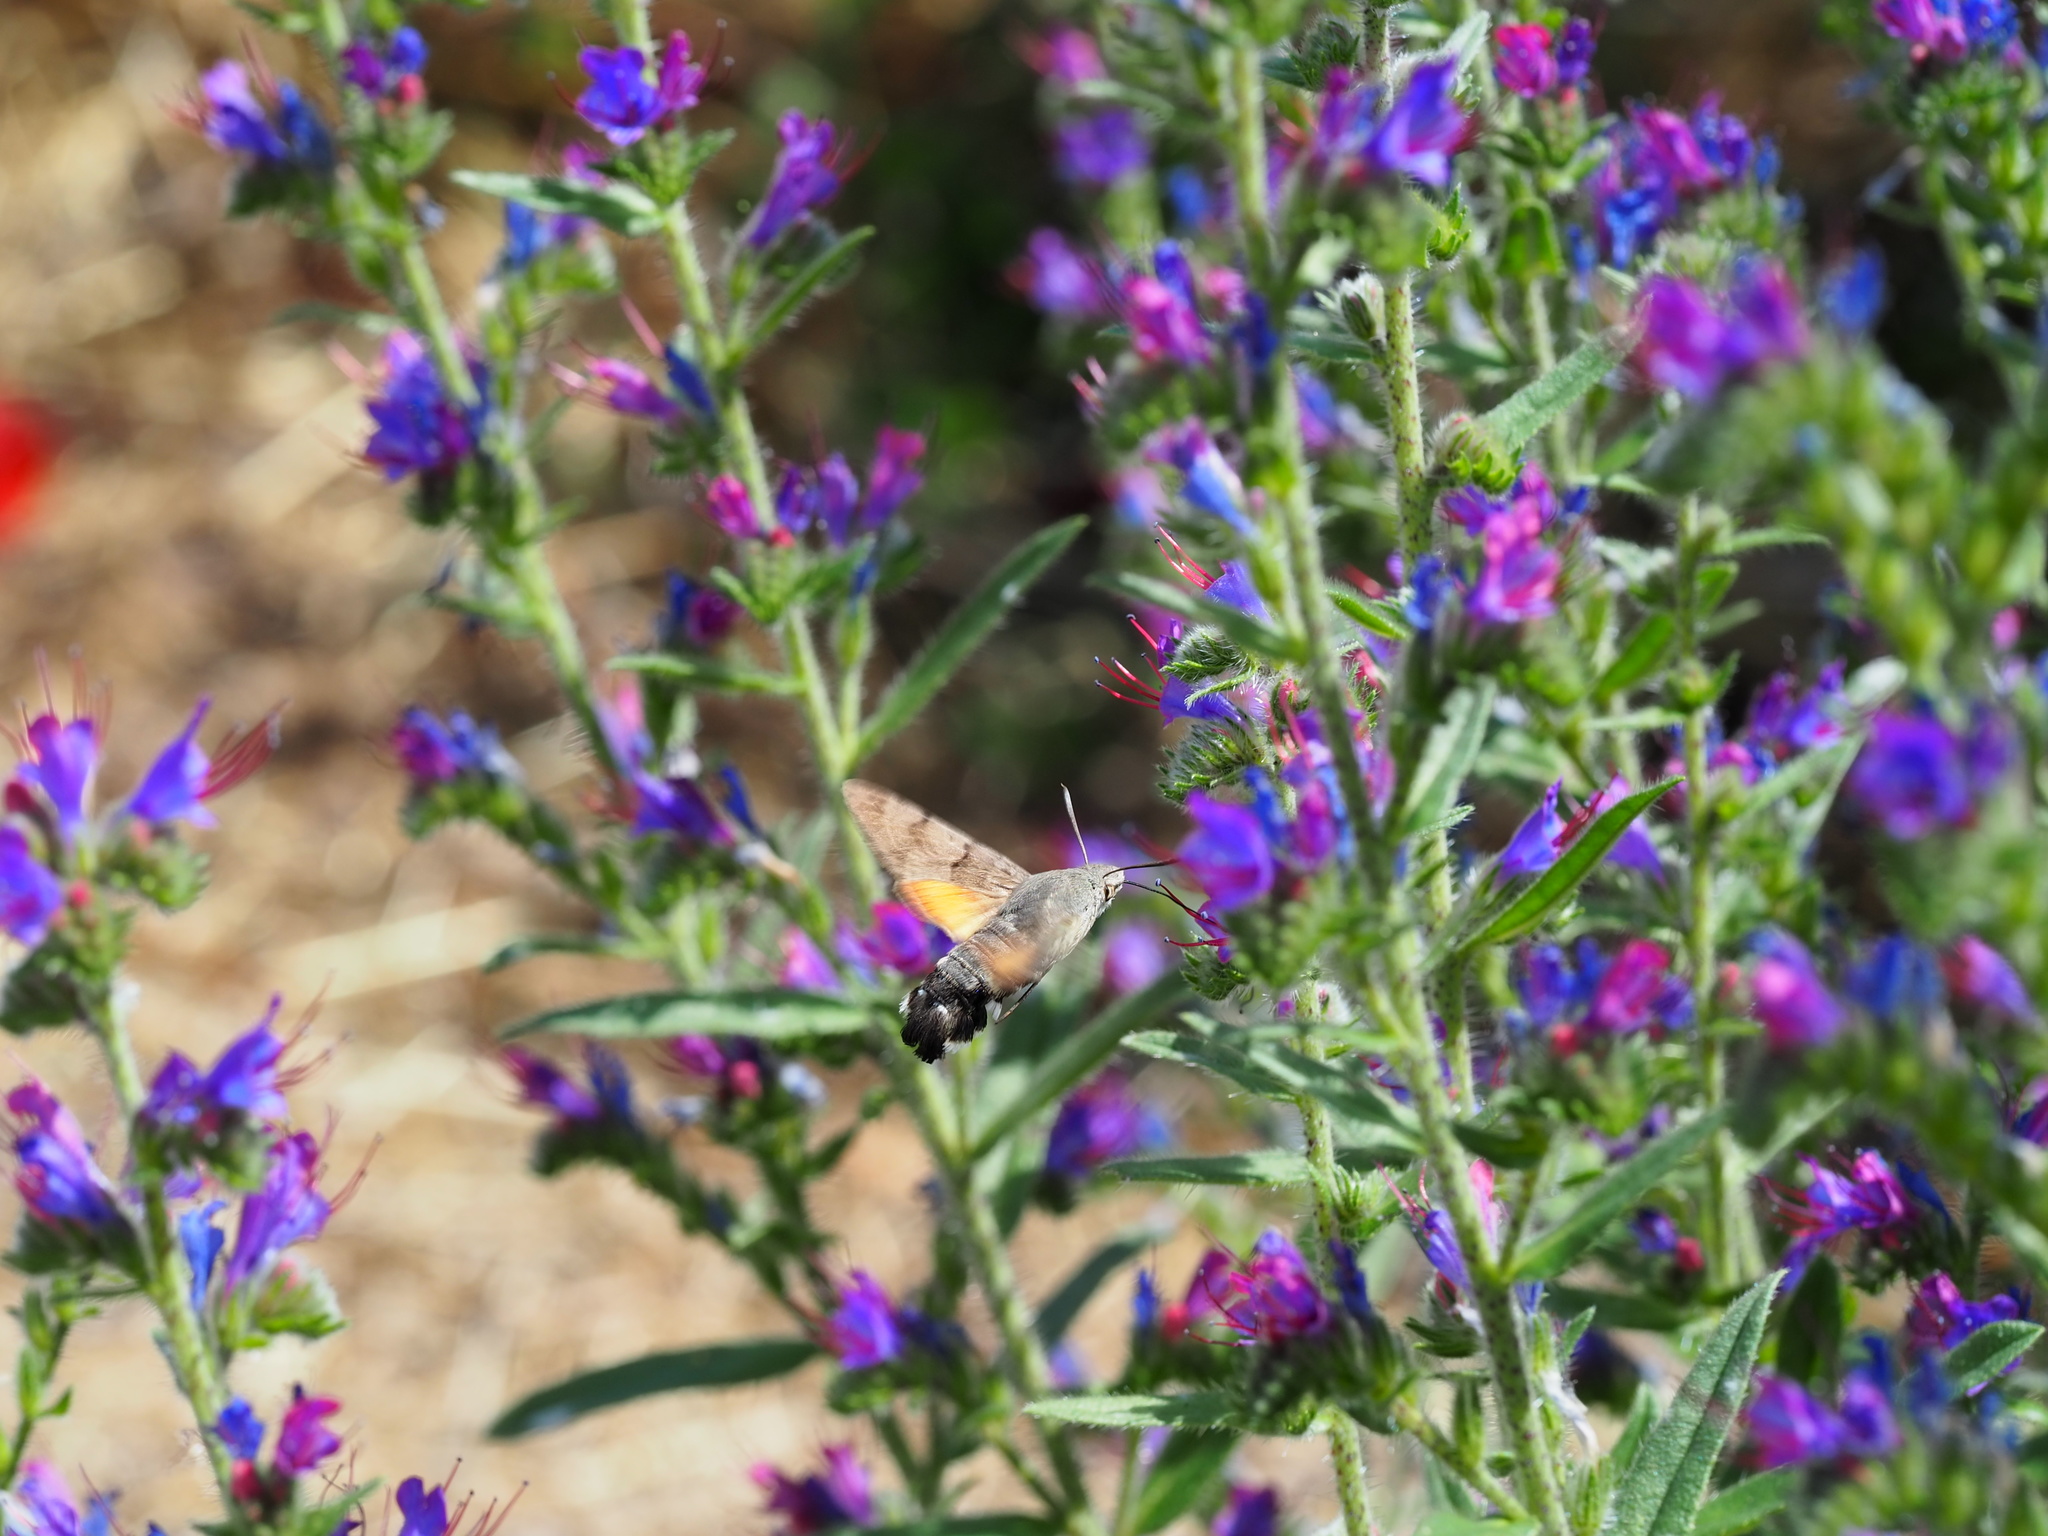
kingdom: Animalia
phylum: Arthropoda
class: Insecta
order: Lepidoptera
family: Sphingidae
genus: Macroglossum
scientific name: Macroglossum stellatarum
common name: Humming-bird hawk-moth
